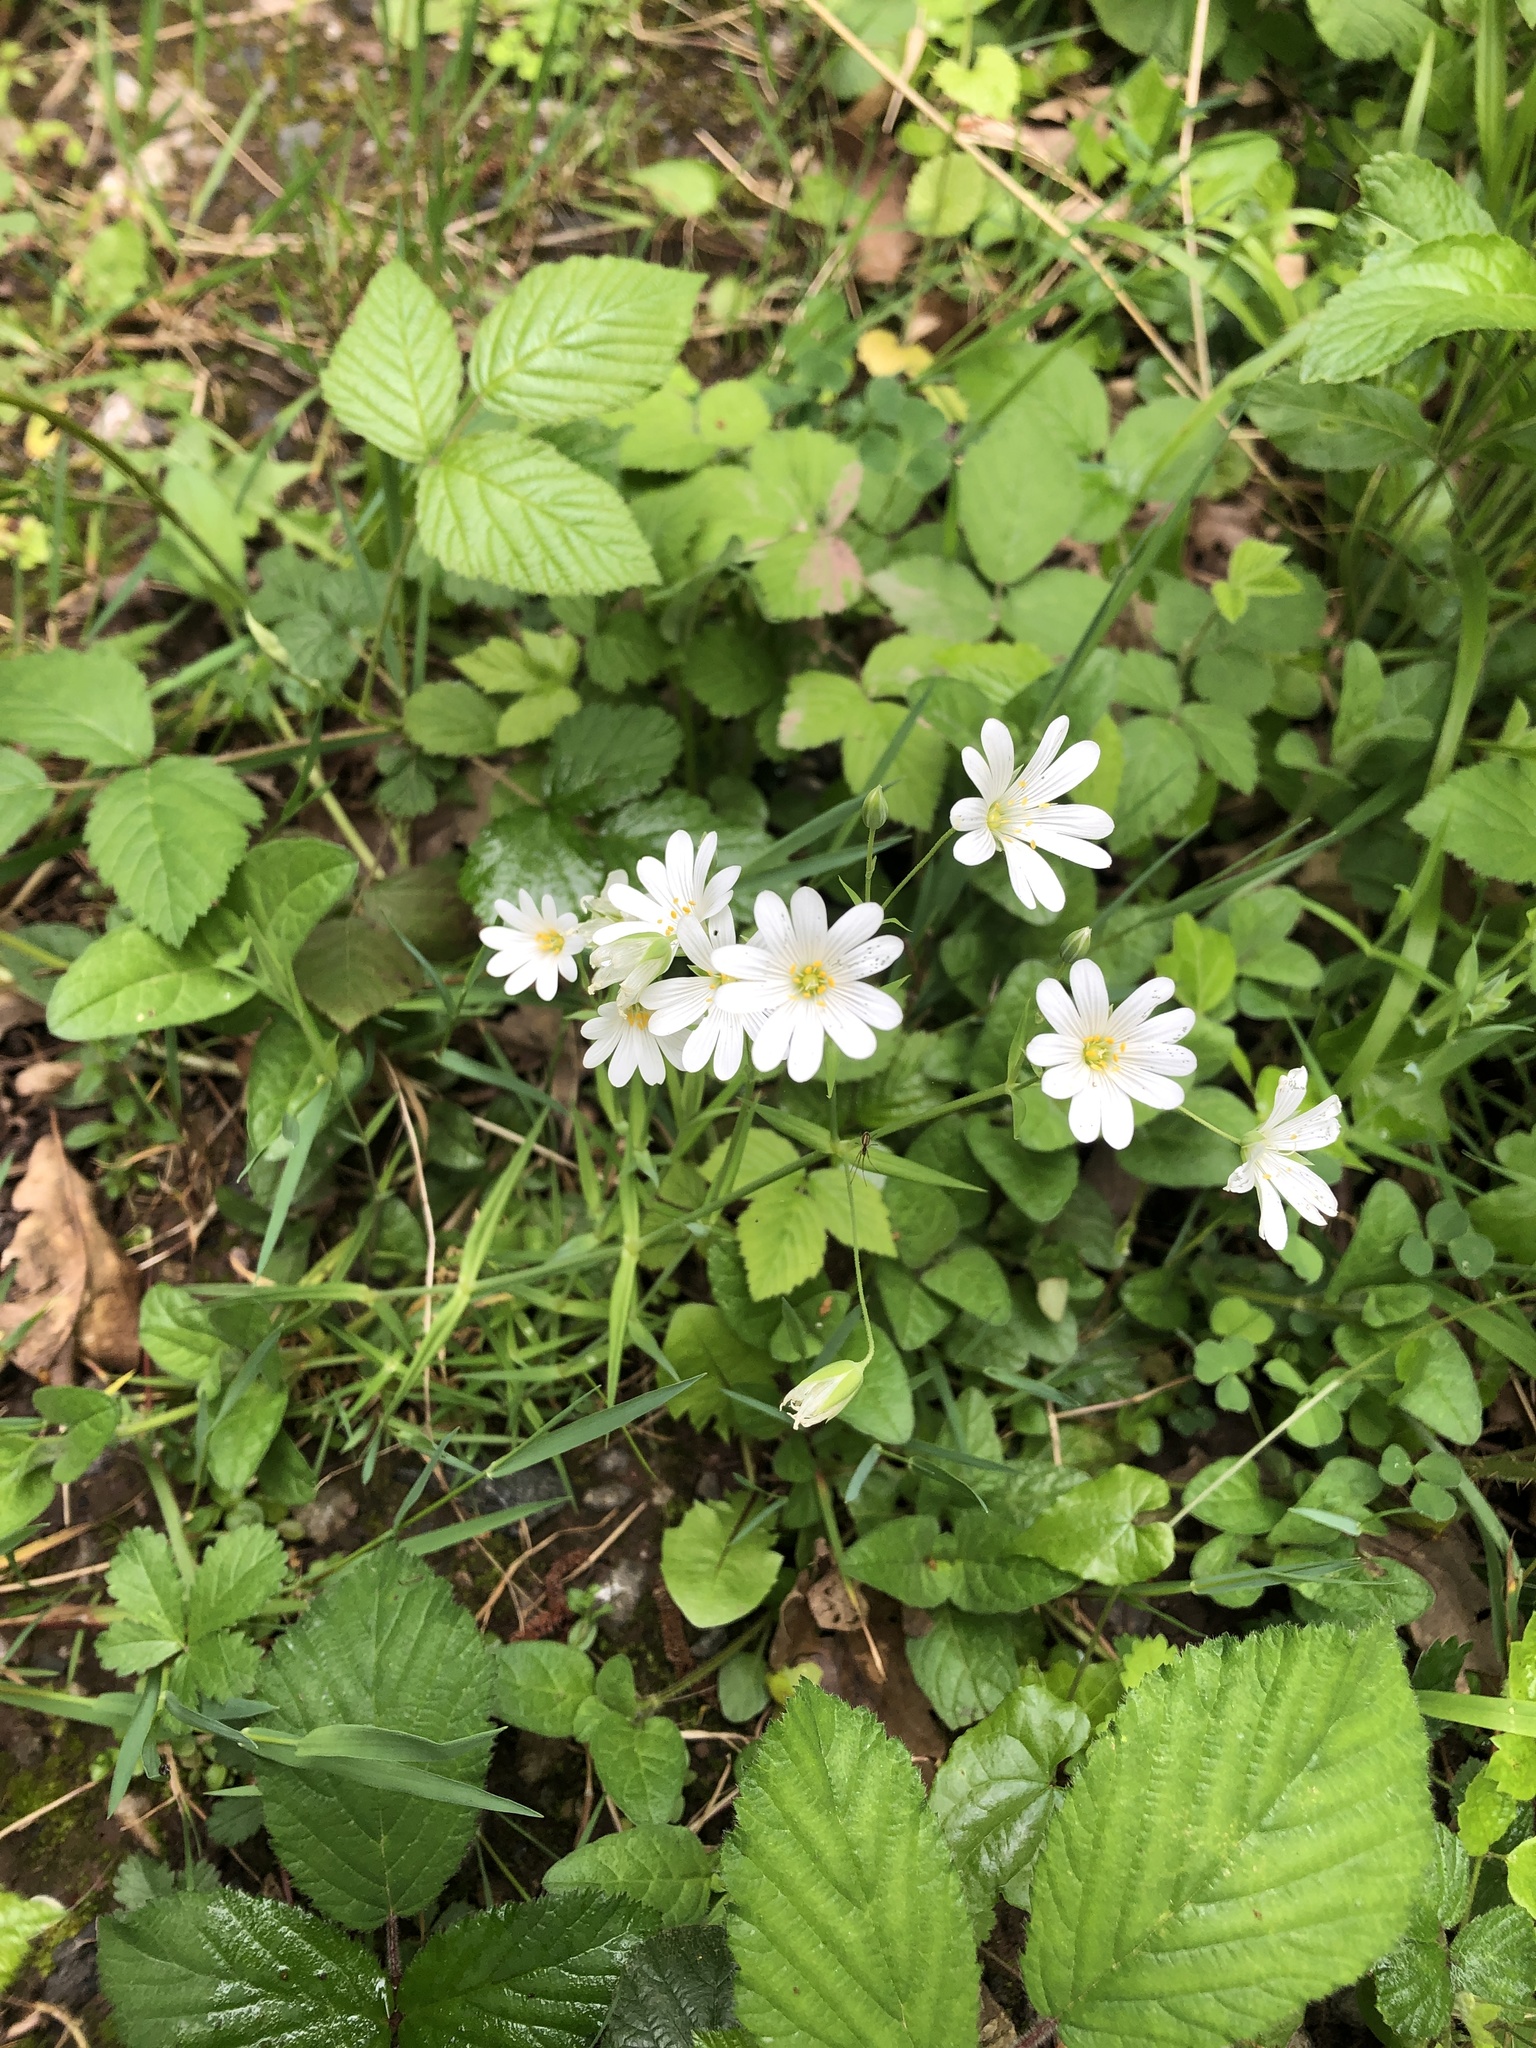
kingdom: Plantae
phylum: Tracheophyta
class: Magnoliopsida
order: Caryophyllales
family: Caryophyllaceae
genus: Rabelera
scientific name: Rabelera holostea
